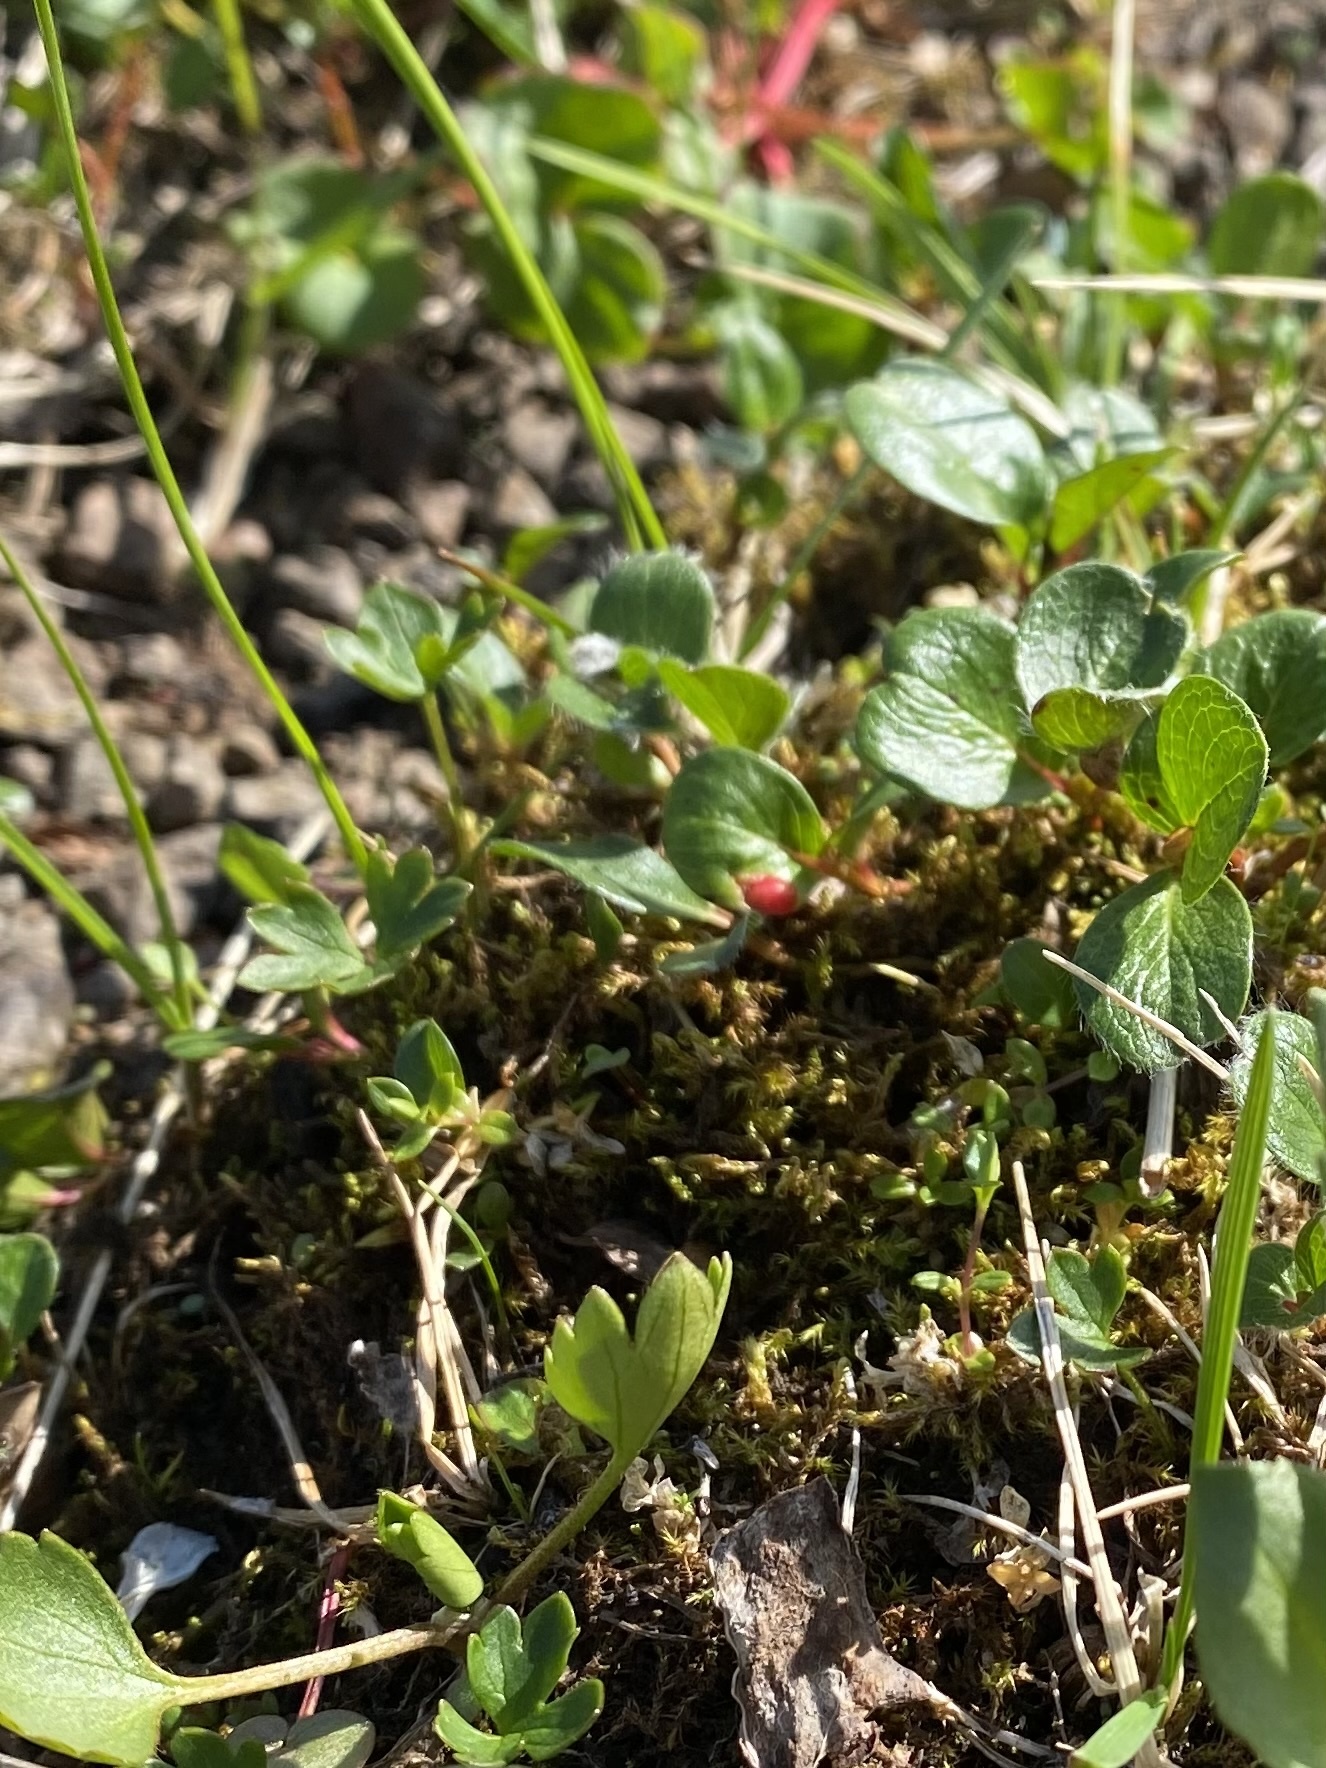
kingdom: Plantae
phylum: Tracheophyta
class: Magnoliopsida
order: Malpighiales
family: Salicaceae
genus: Salix
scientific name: Salix polaris
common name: Polar willow
